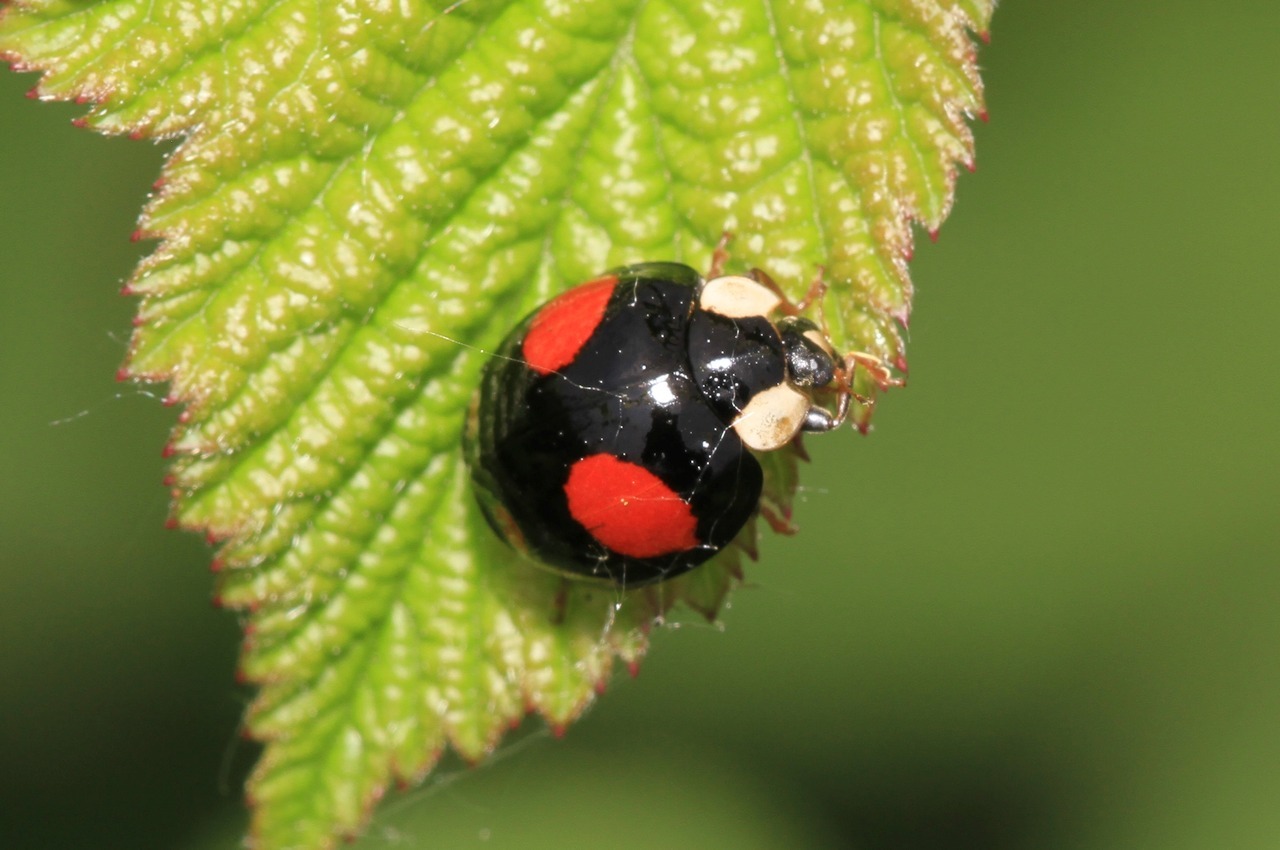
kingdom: Animalia
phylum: Arthropoda
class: Insecta
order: Coleoptera
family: Coccinellidae
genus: Harmonia
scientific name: Harmonia axyridis
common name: Harlequin ladybird
